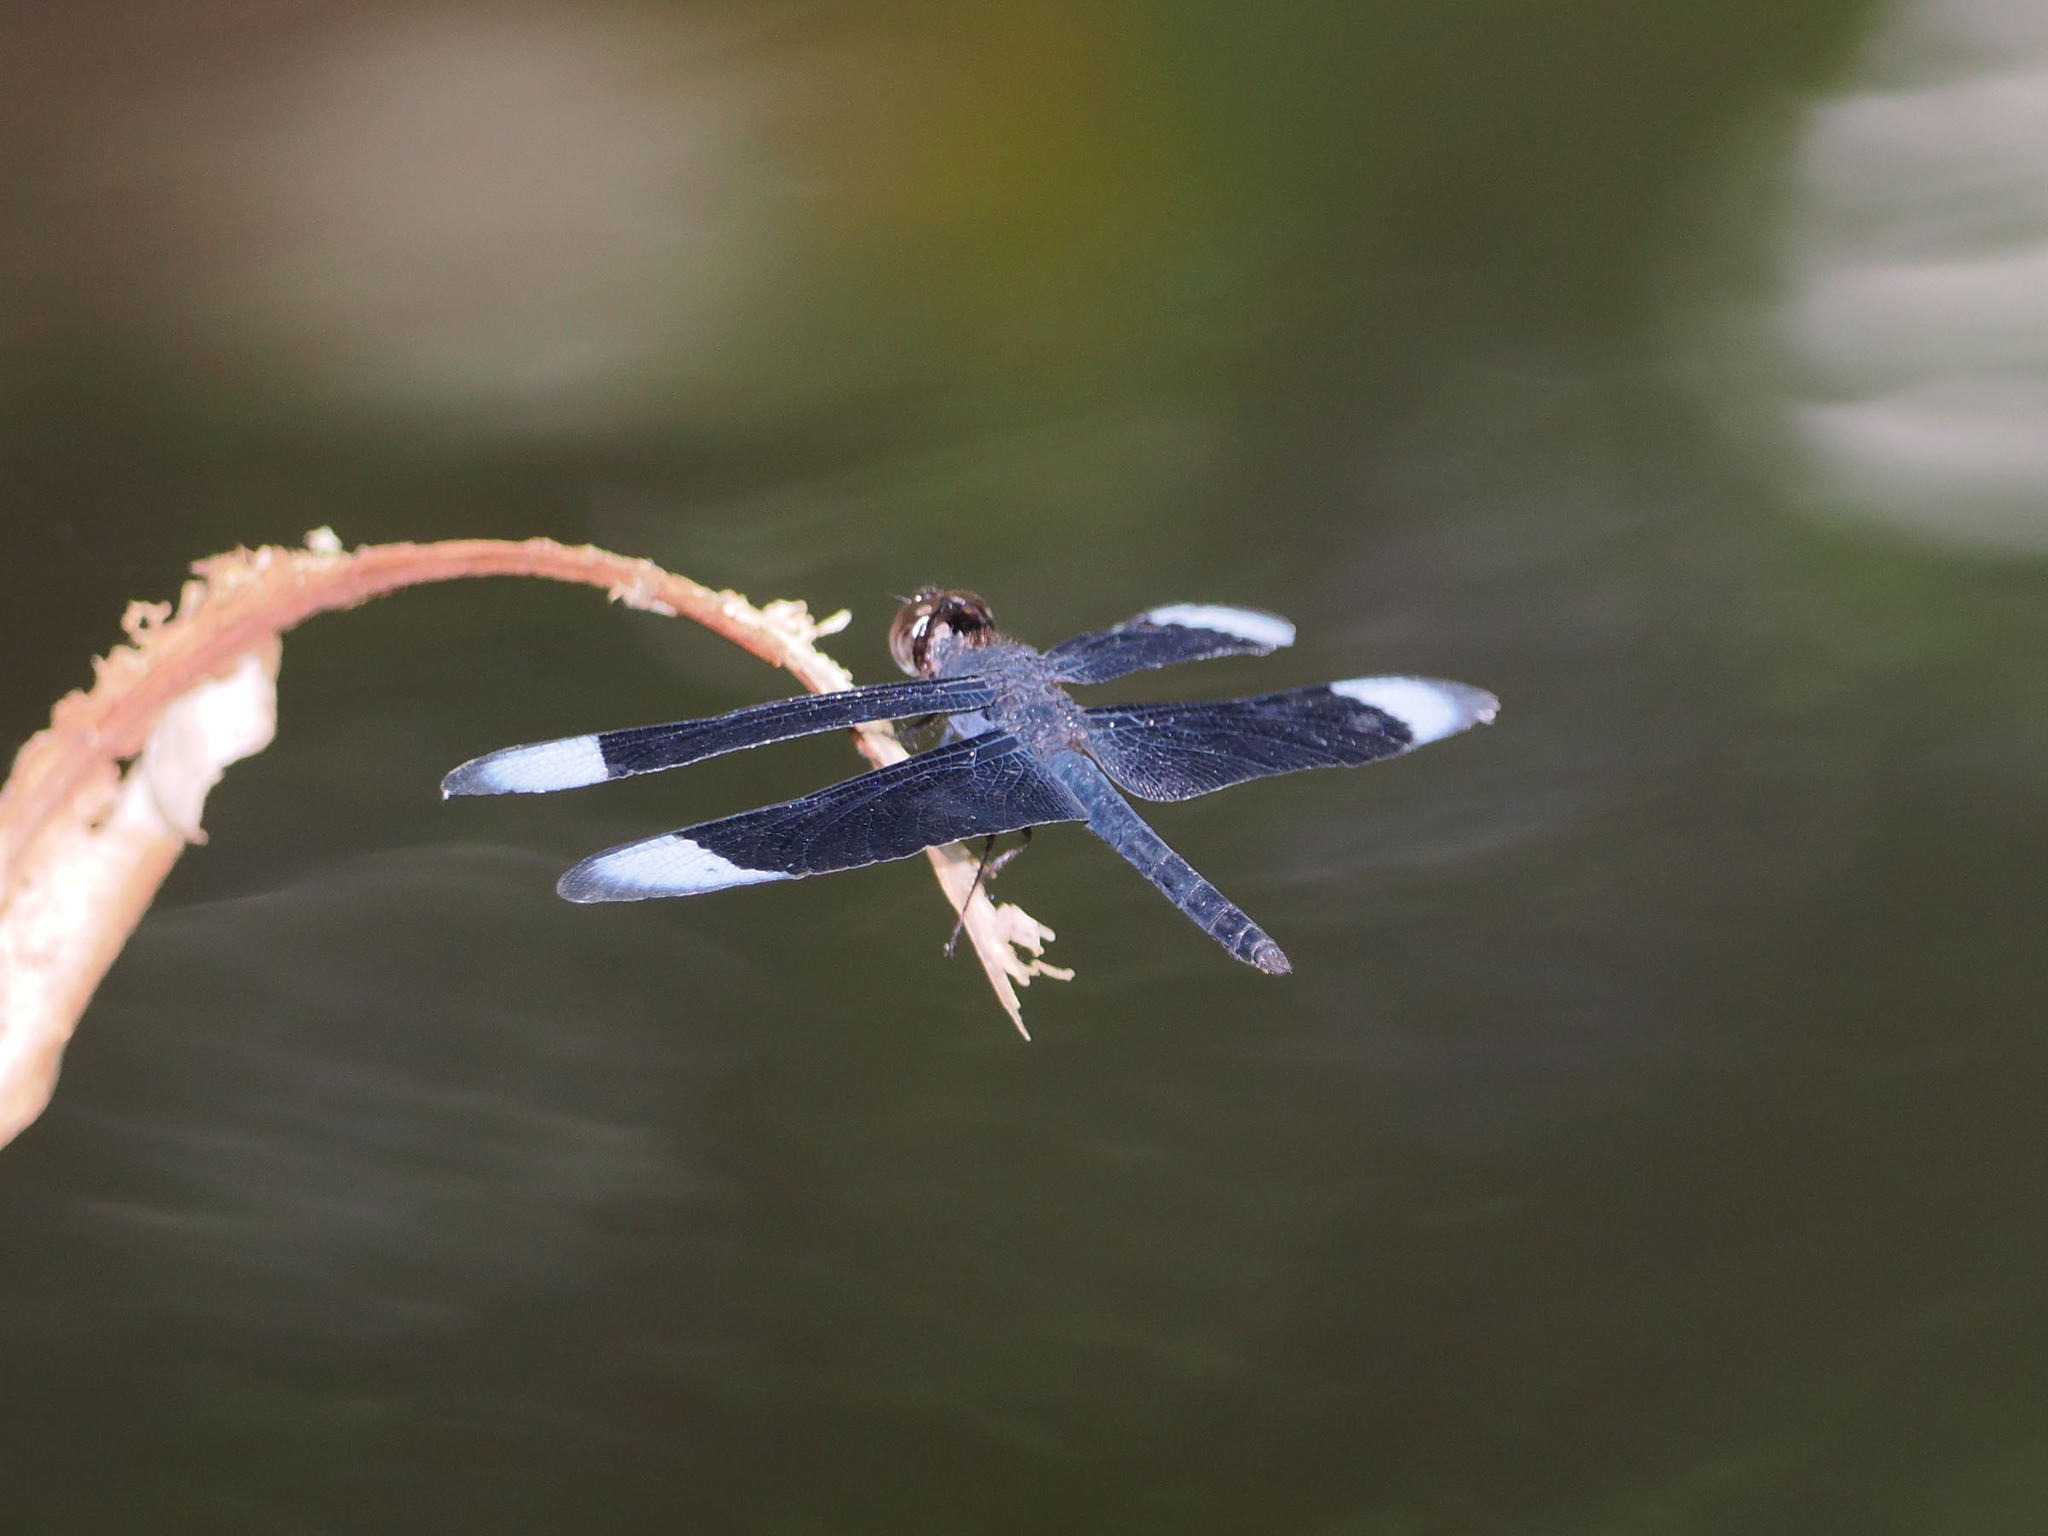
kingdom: Animalia
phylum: Arthropoda
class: Insecta
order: Odonata
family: Libellulidae
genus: Neurothemis
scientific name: Neurothemis decora
